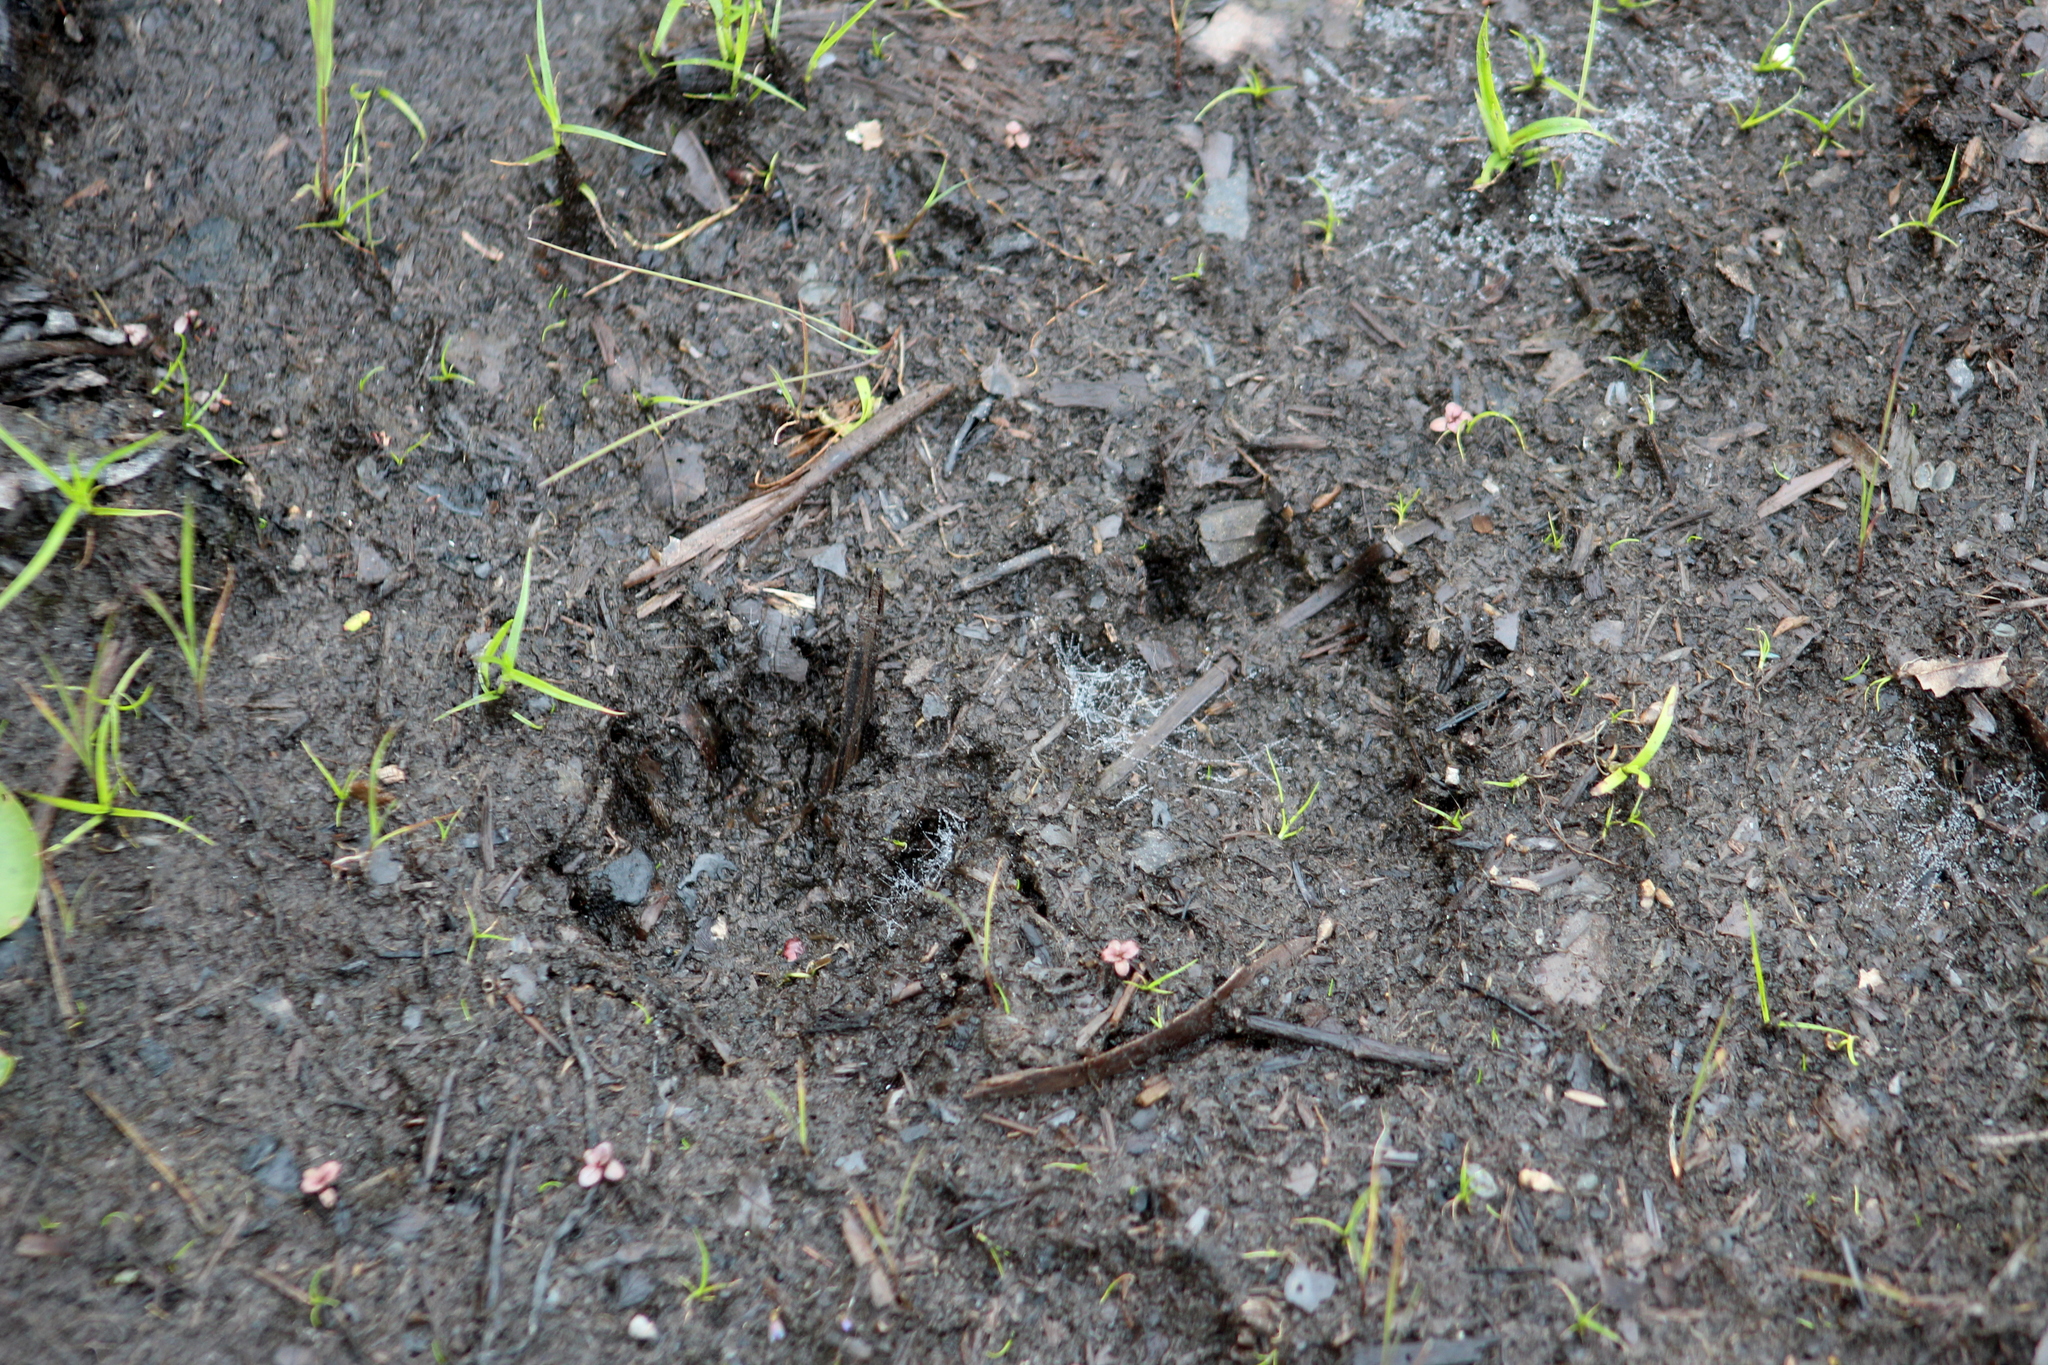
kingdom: Animalia
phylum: Chordata
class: Mammalia
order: Carnivora
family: Procyonidae
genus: Procyon
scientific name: Procyon lotor
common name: Raccoon
